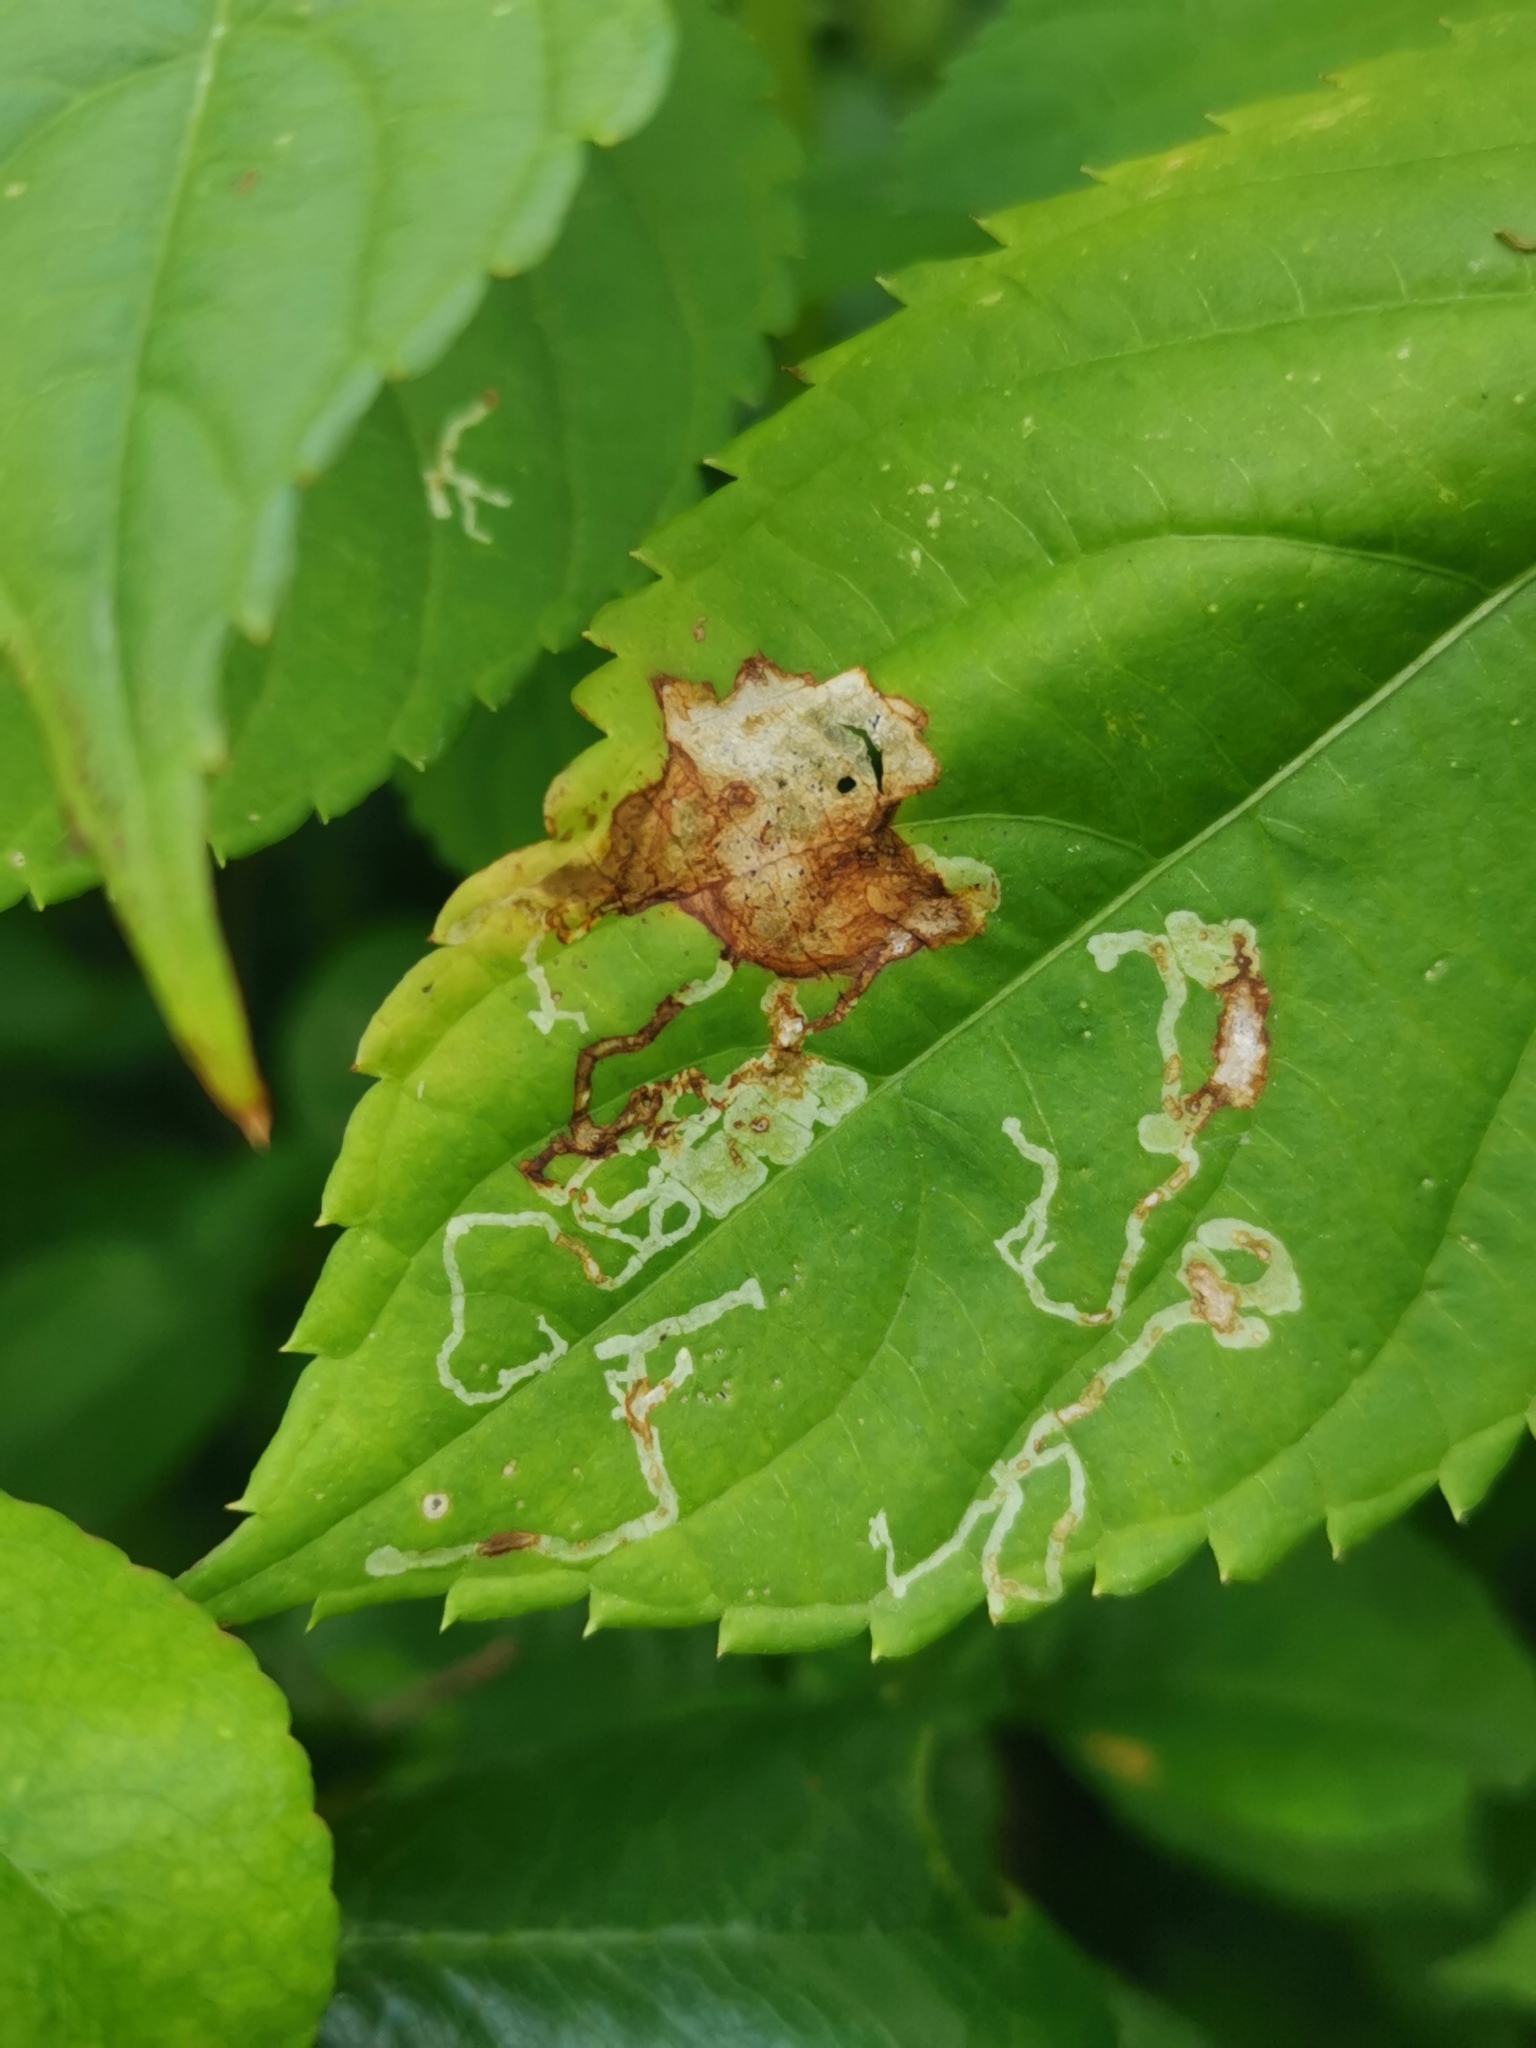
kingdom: Animalia
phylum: Arthropoda
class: Insecta
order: Diptera
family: Agromyzidae
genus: Phytoliriomyza
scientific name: Phytoliriomyza melampyga
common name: Jewelweed leaf-miner fly
